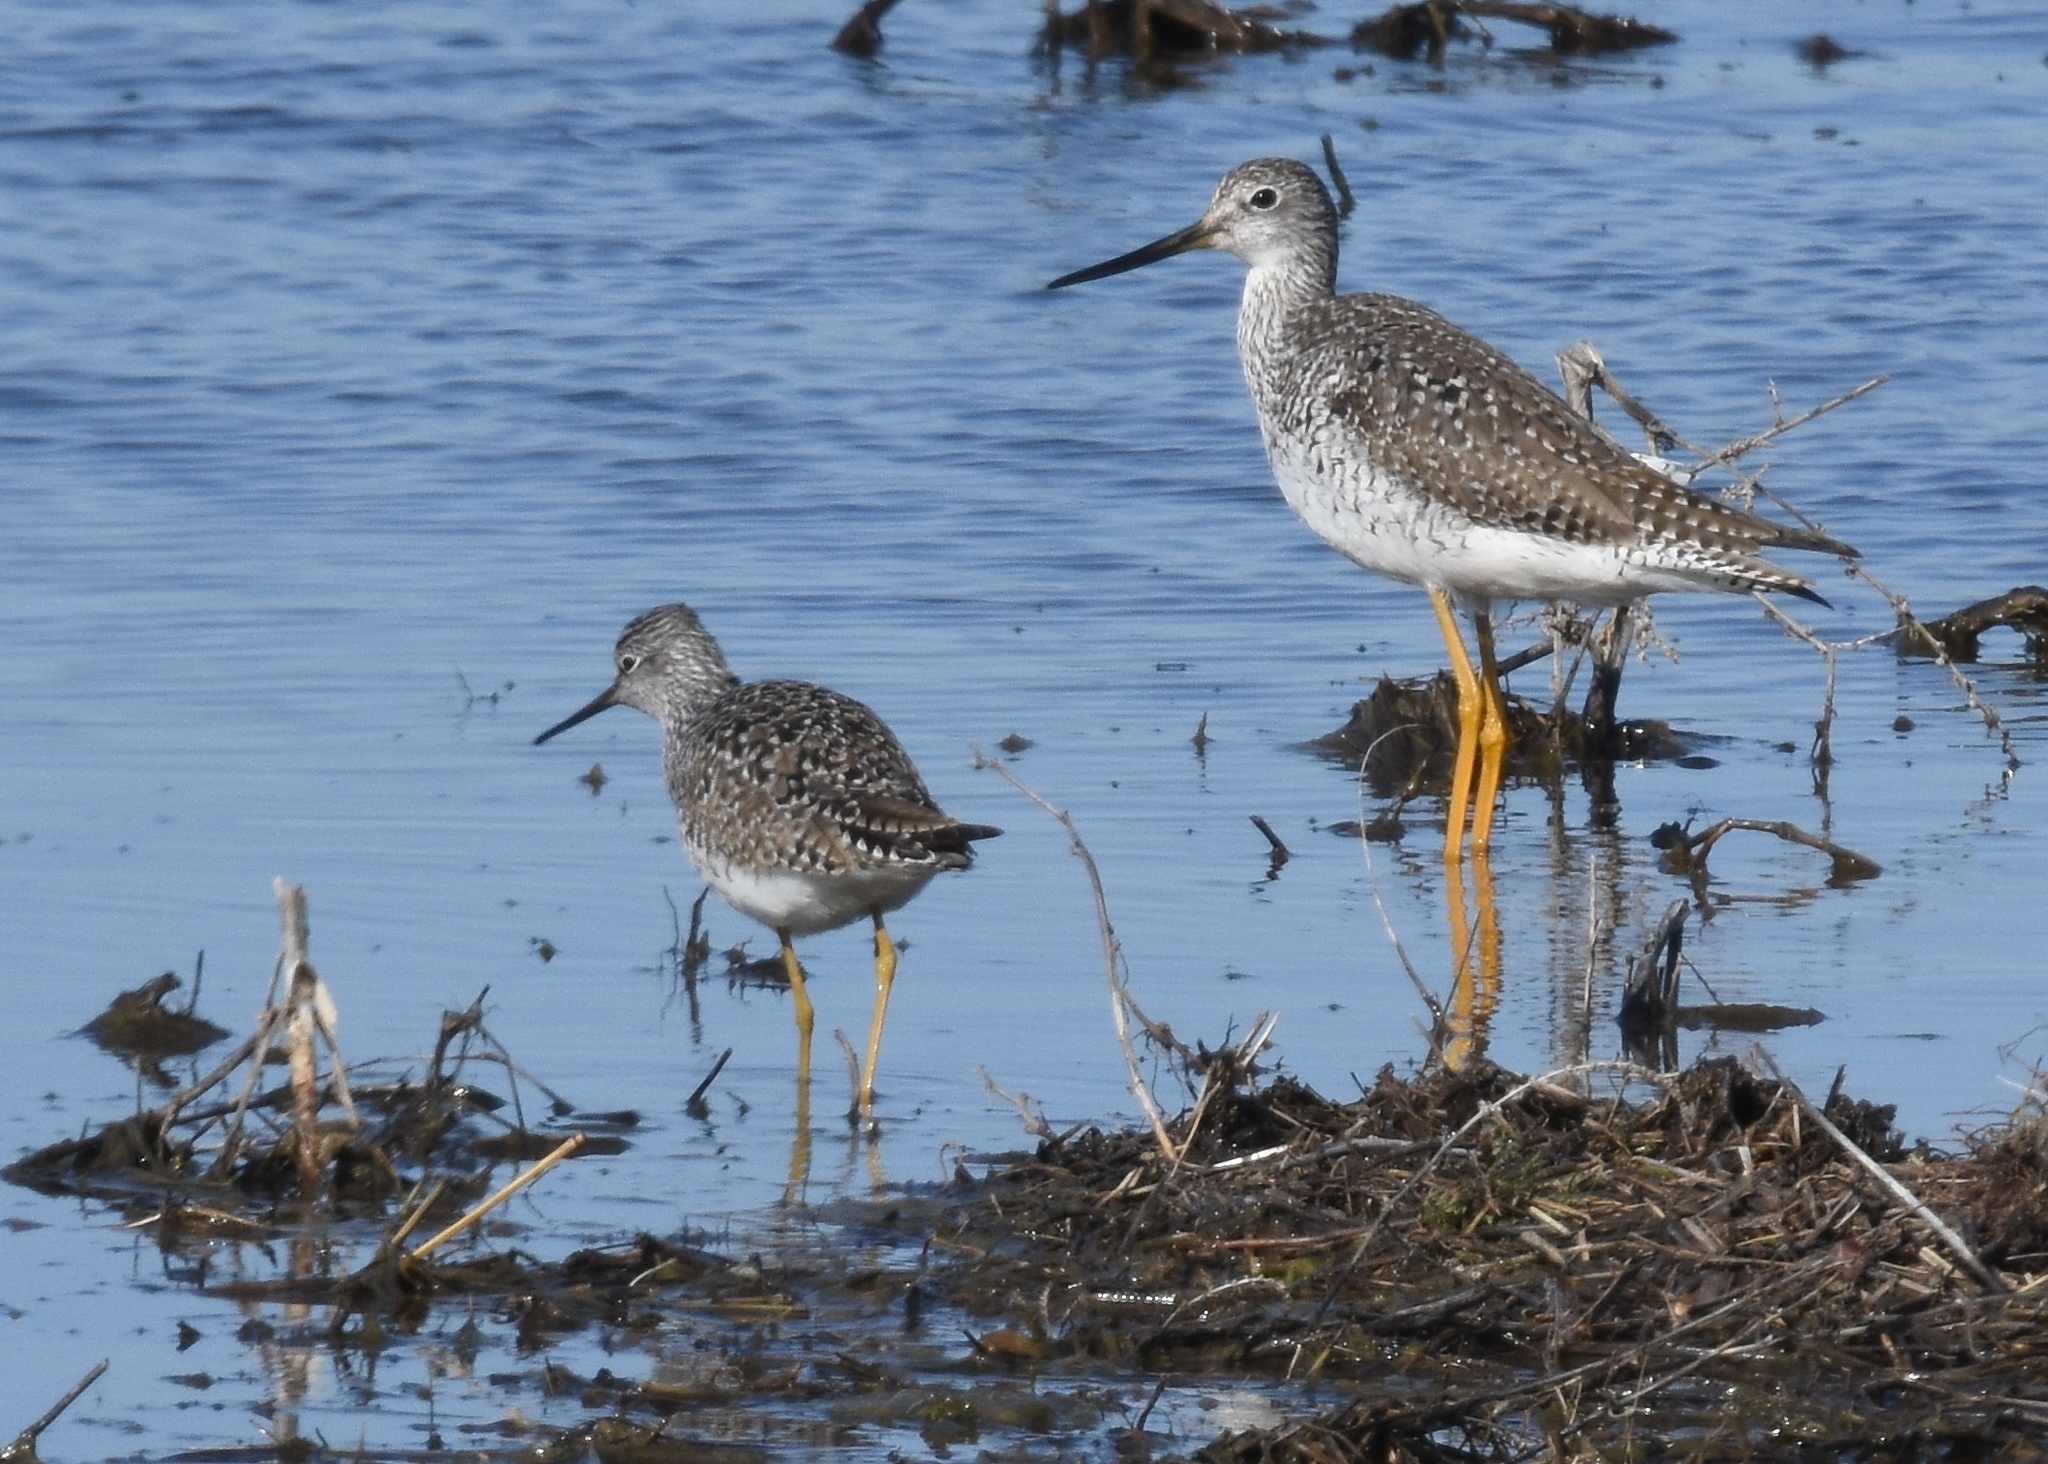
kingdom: Animalia
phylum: Chordata
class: Aves
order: Charadriiformes
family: Scolopacidae
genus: Tringa
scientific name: Tringa melanoleuca
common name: Greater yellowlegs
